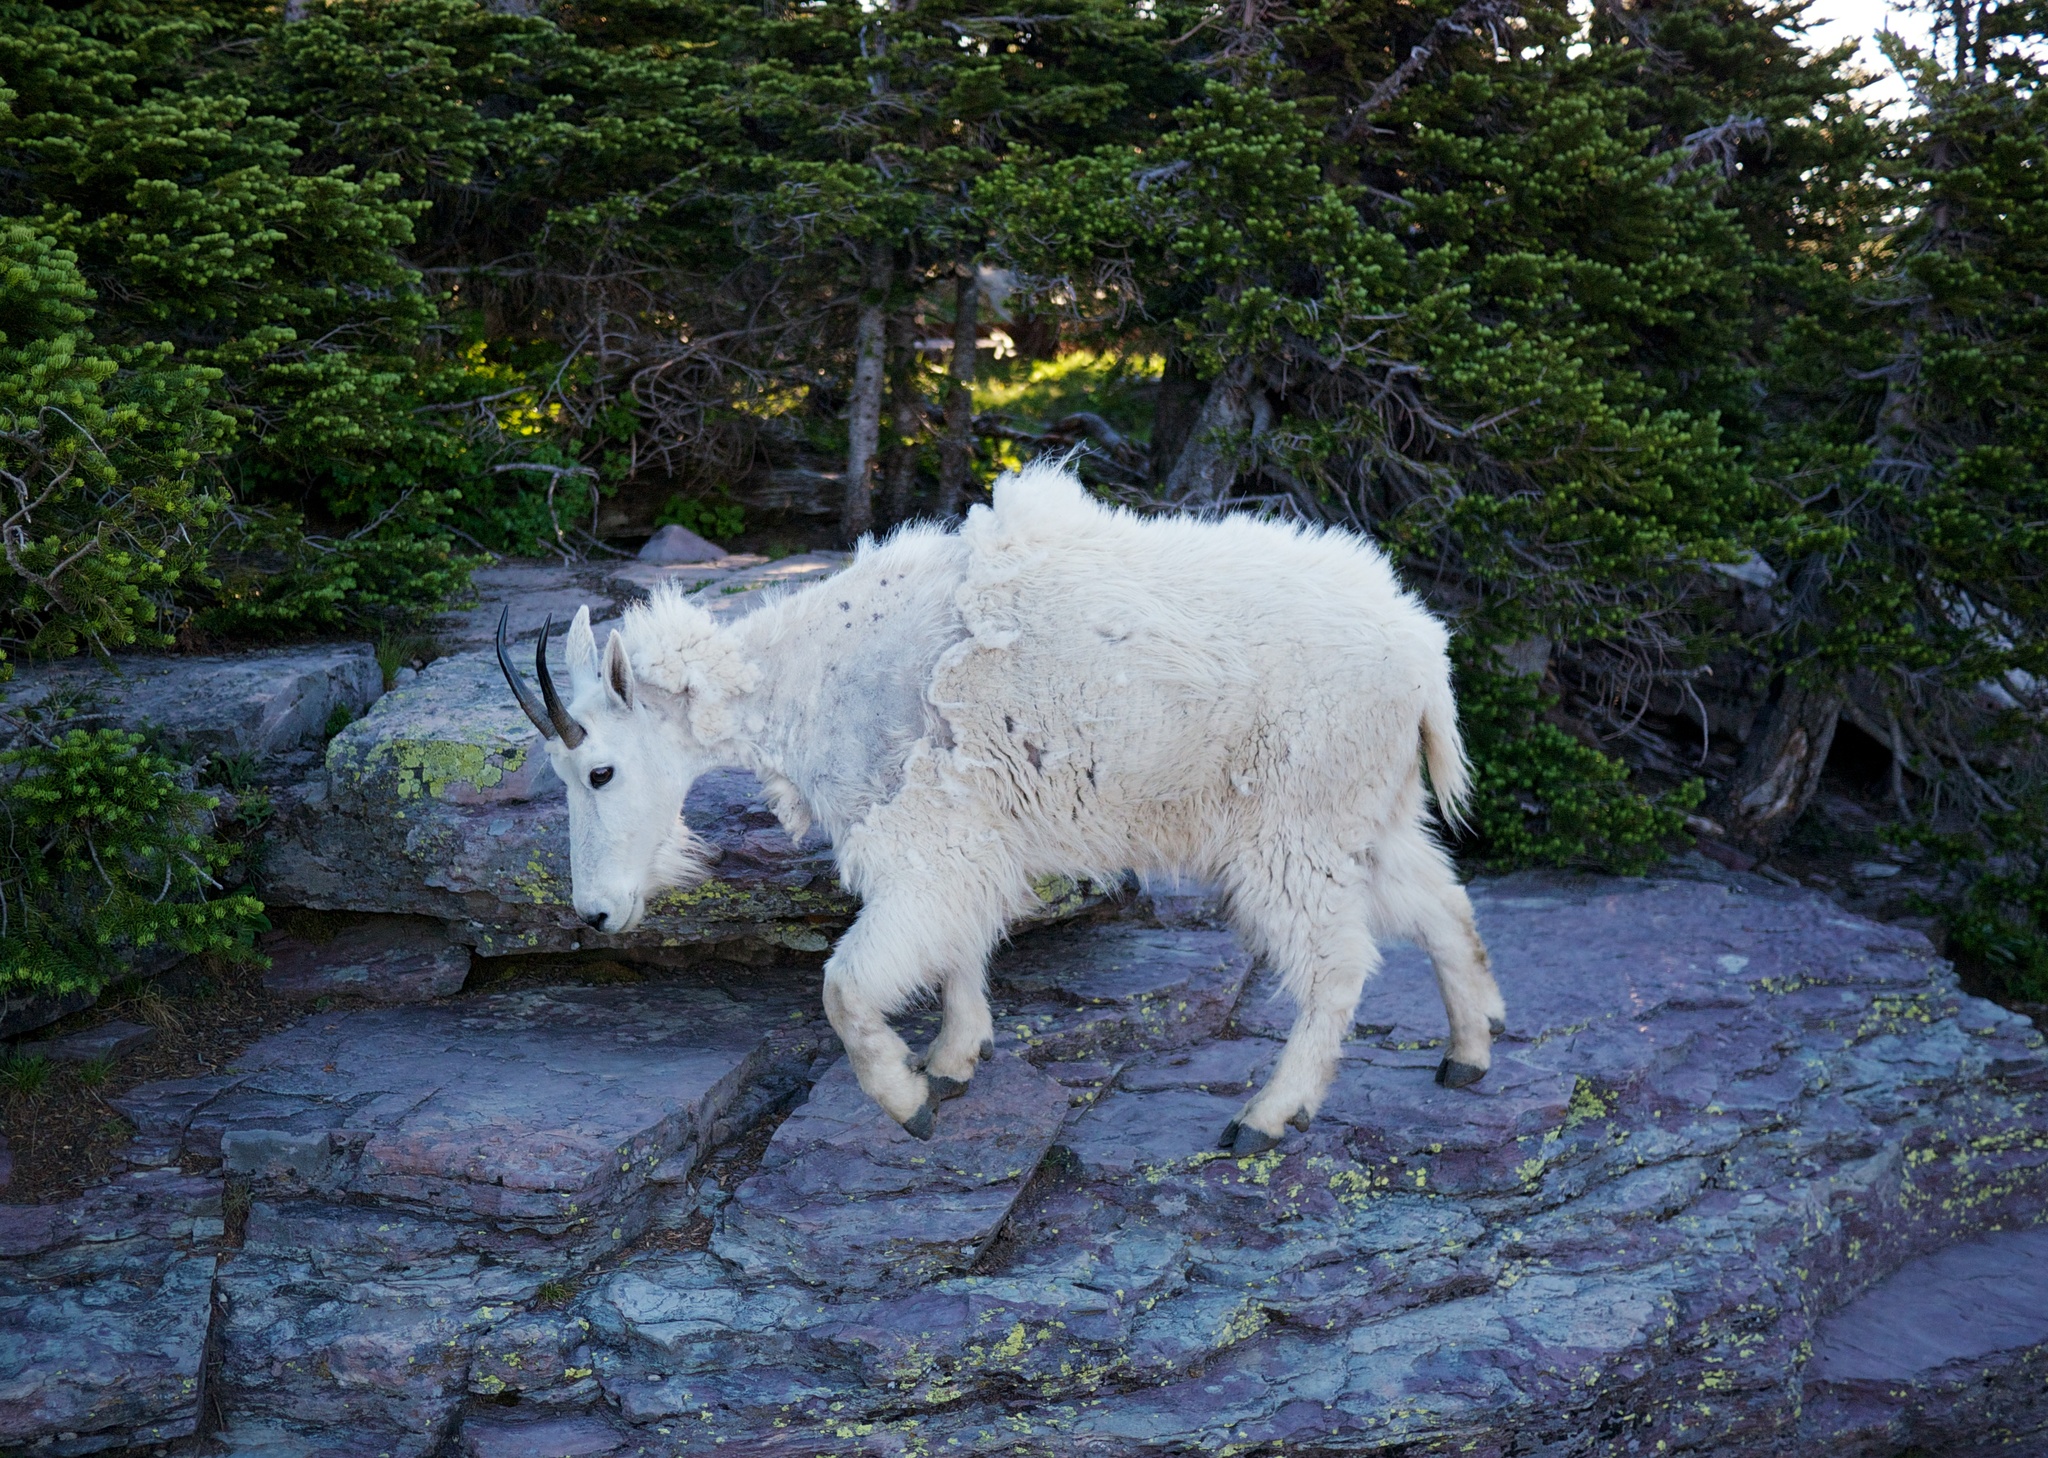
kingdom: Animalia
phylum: Chordata
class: Mammalia
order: Artiodactyla
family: Bovidae
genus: Oreamnos
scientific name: Oreamnos americanus
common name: Mountain goat
